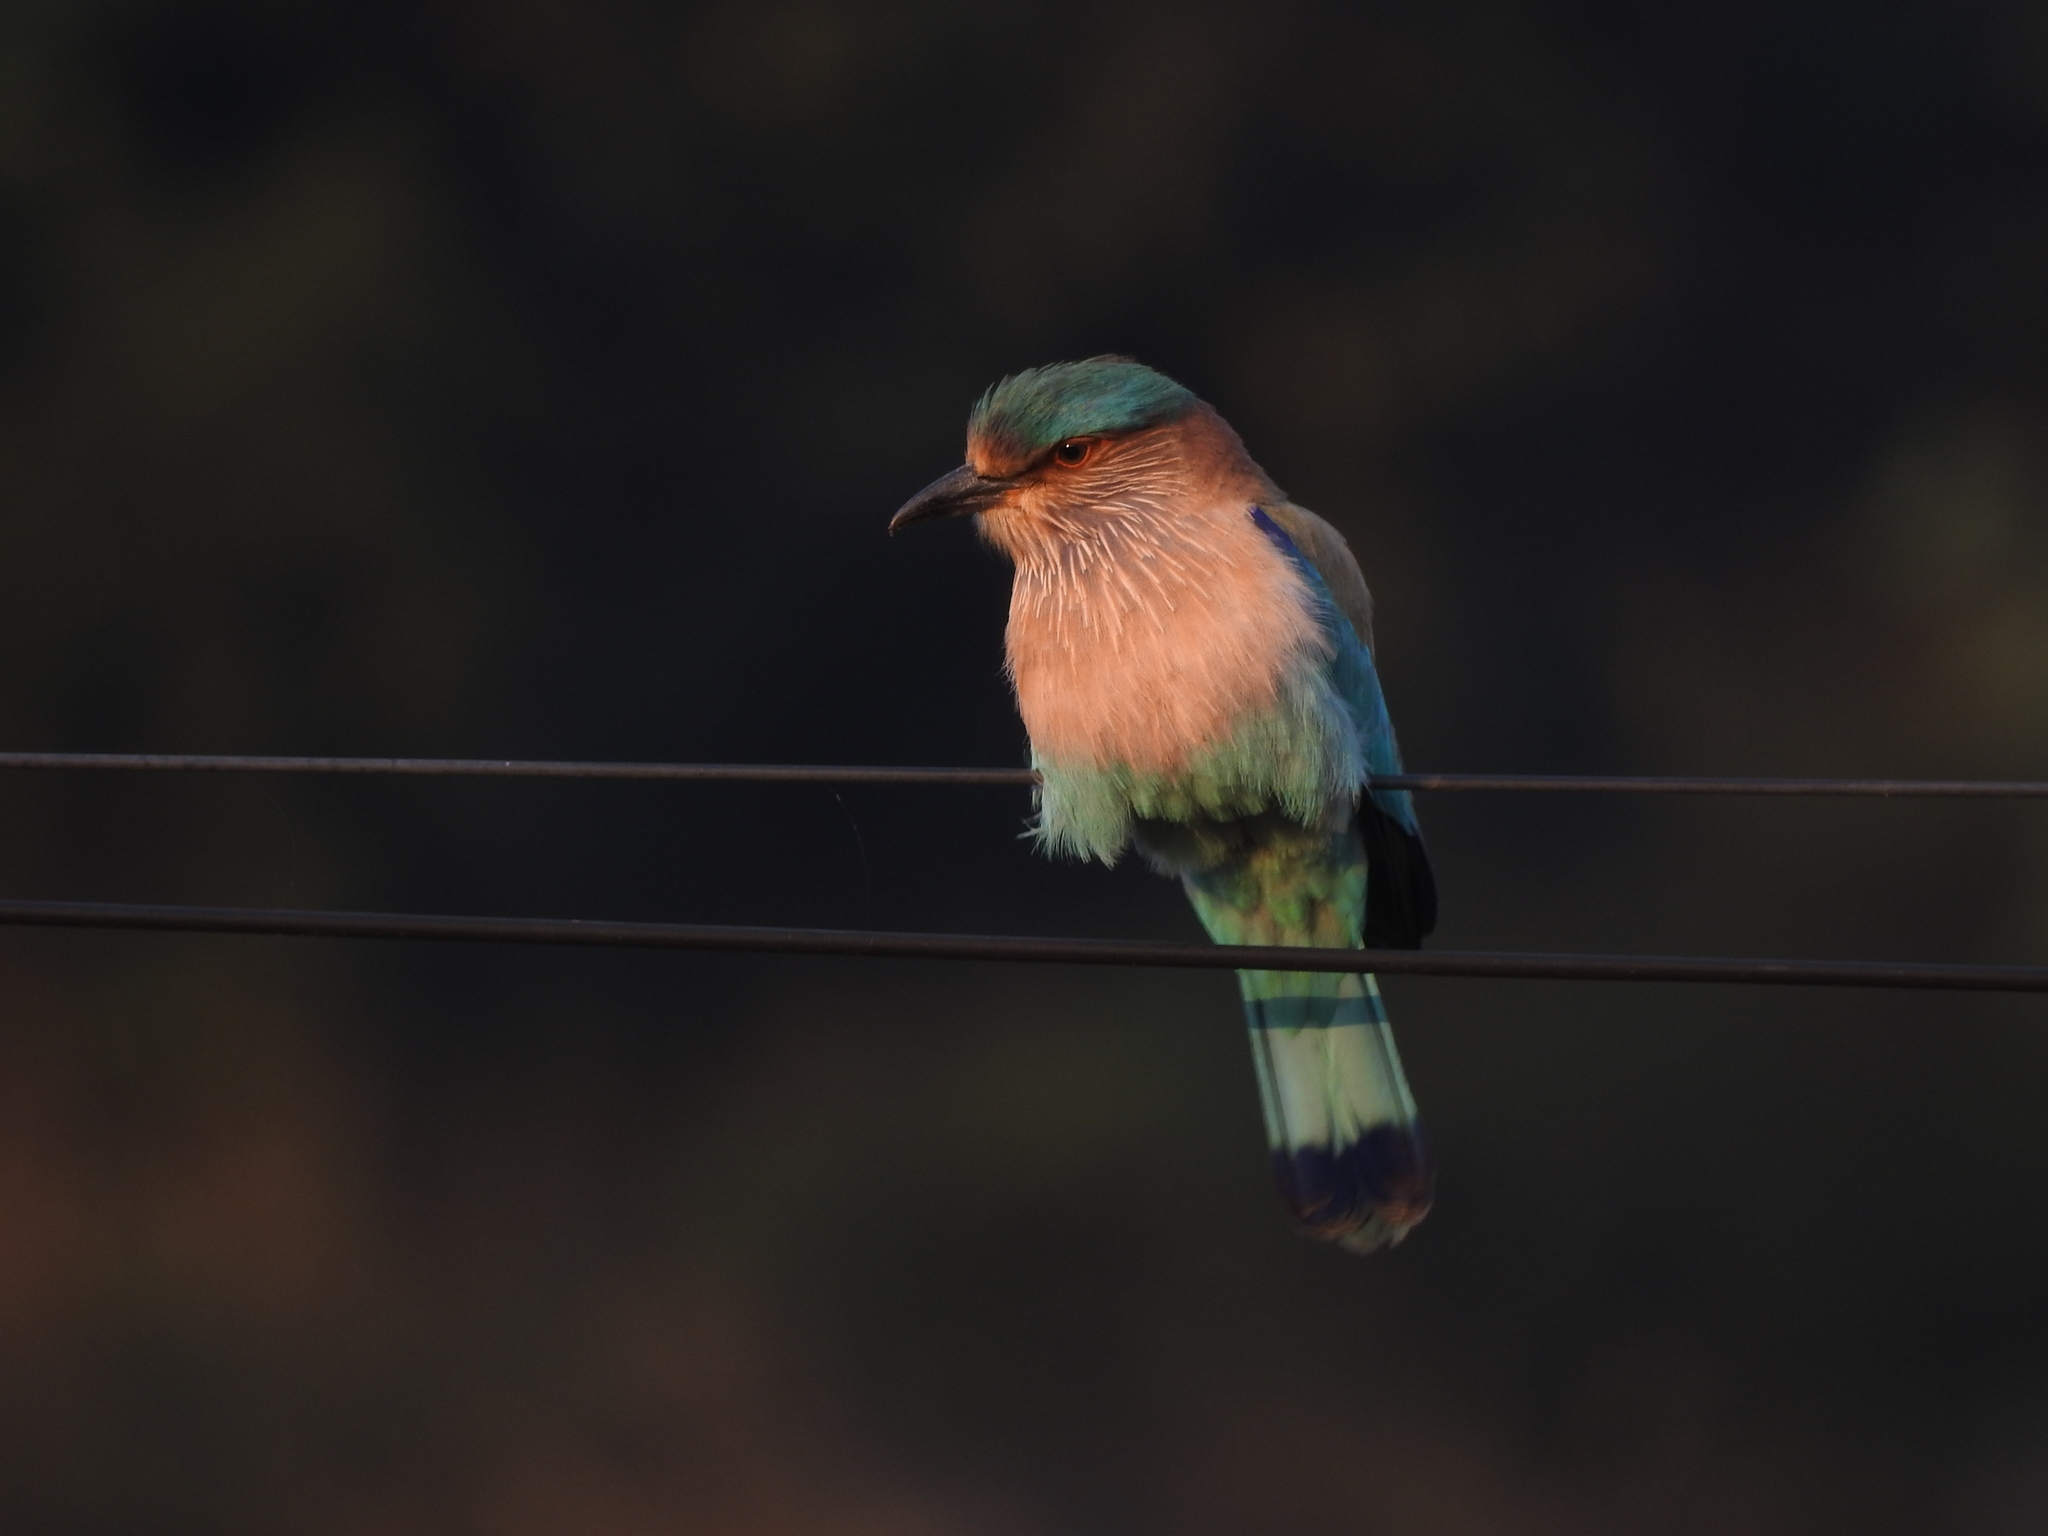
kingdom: Animalia
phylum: Chordata
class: Aves
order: Coraciiformes
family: Coraciidae
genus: Coracias
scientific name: Coracias benghalensis
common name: Indian roller
